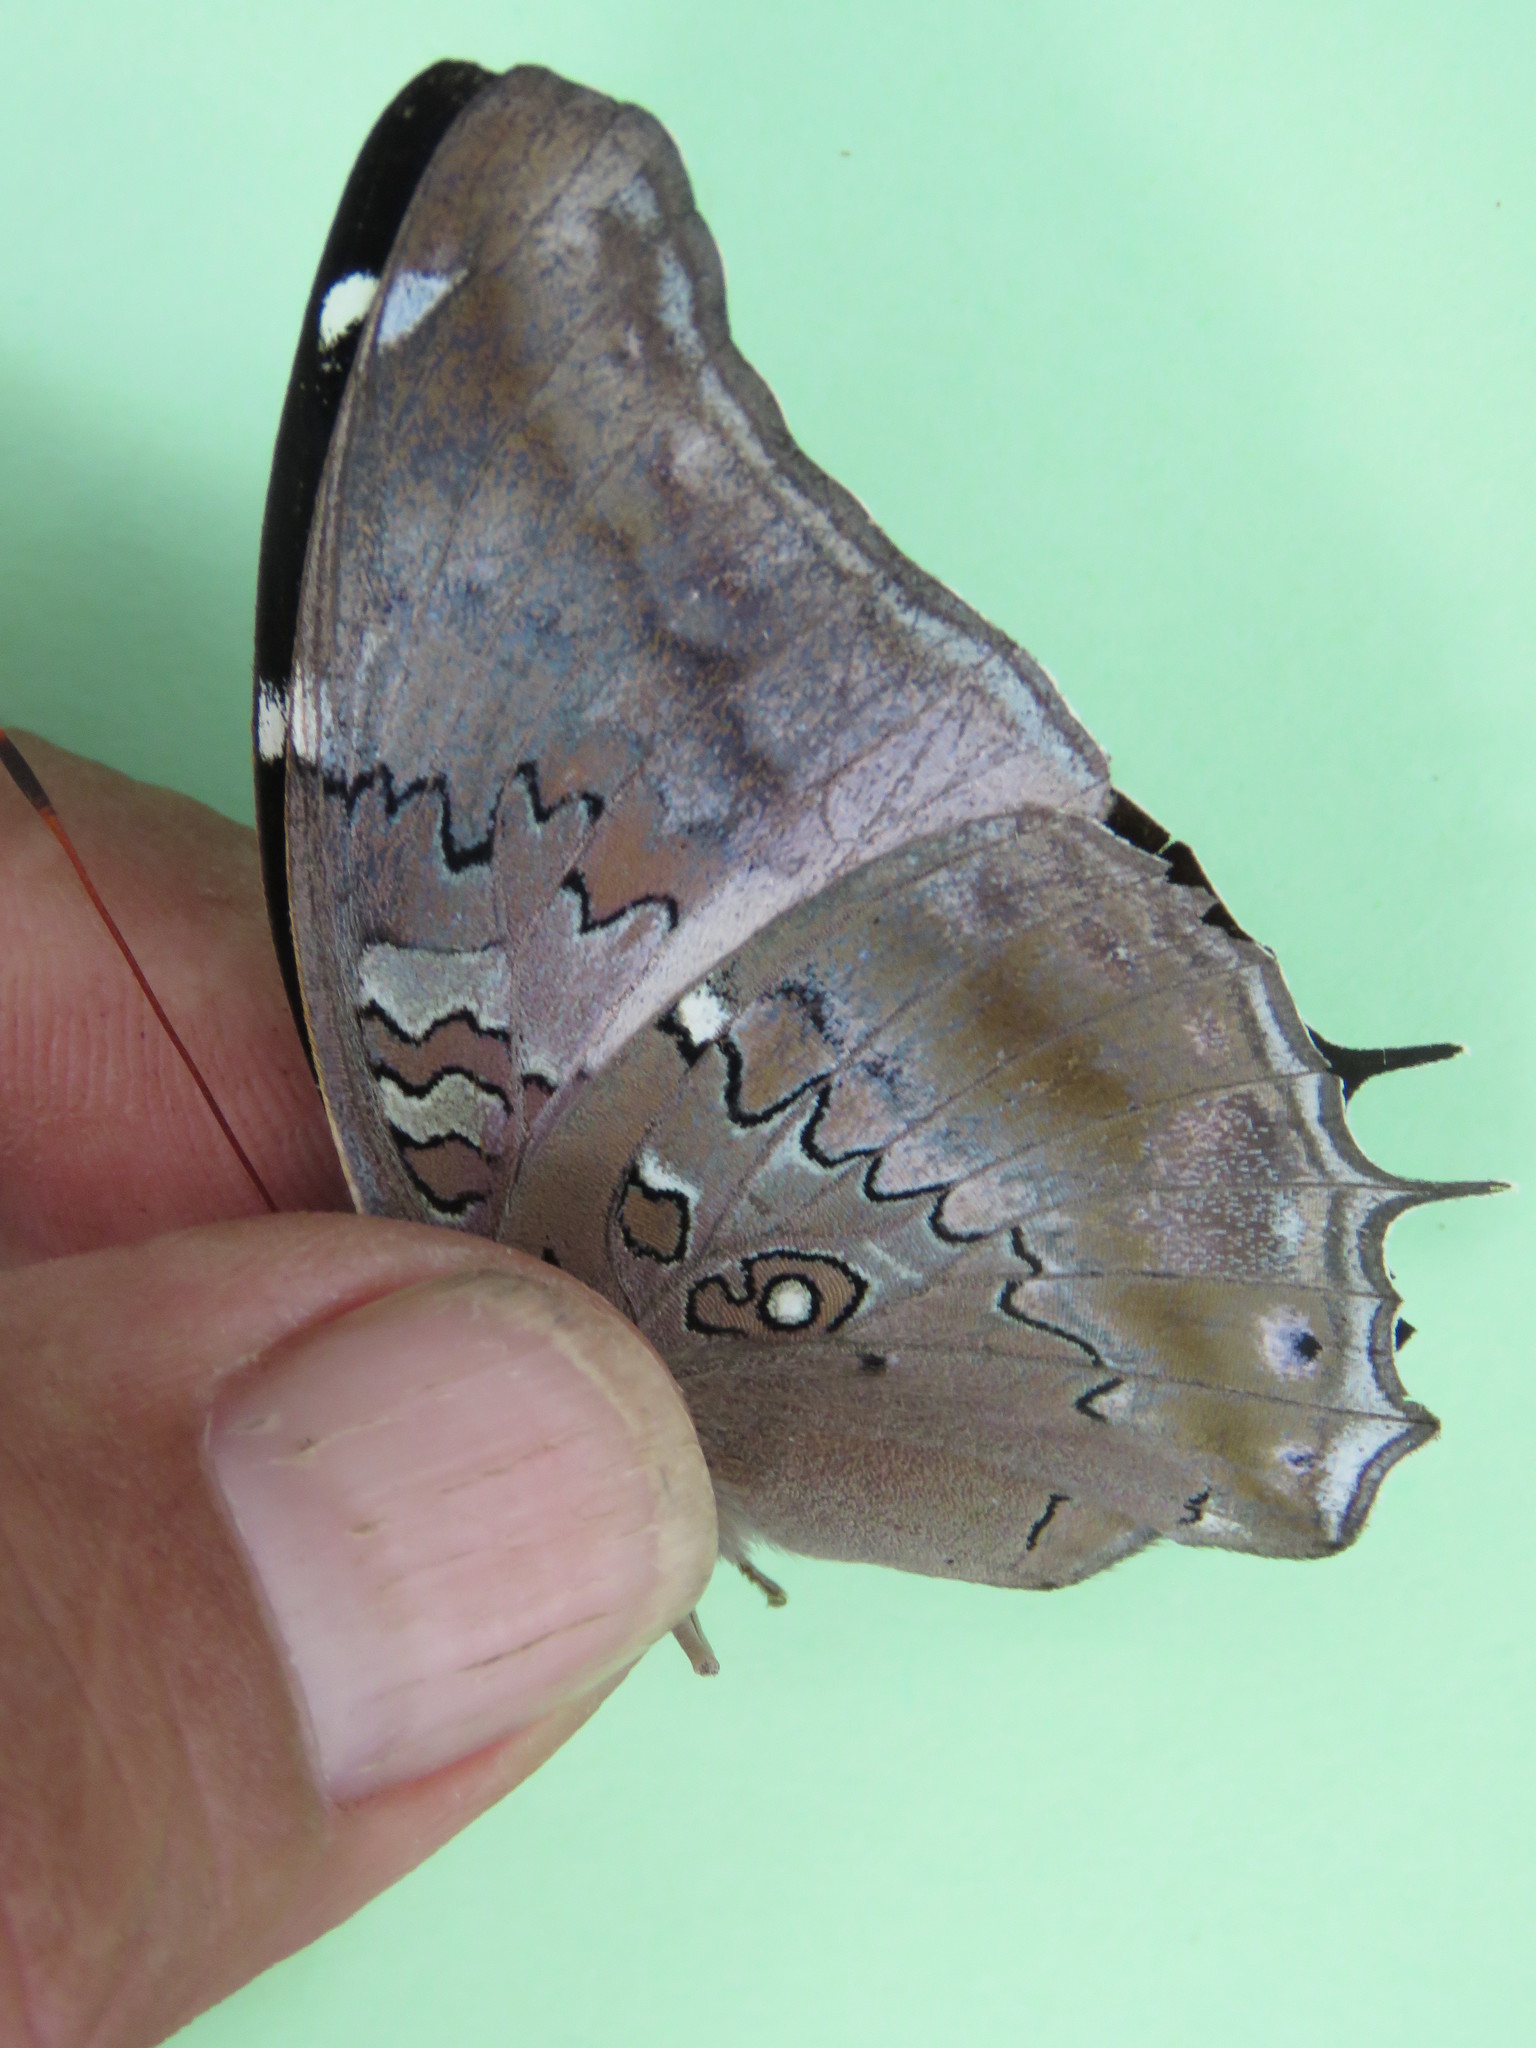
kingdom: Animalia
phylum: Arthropoda
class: Insecta
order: Lepidoptera
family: Nymphalidae
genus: Coea
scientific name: Coea acheronta
